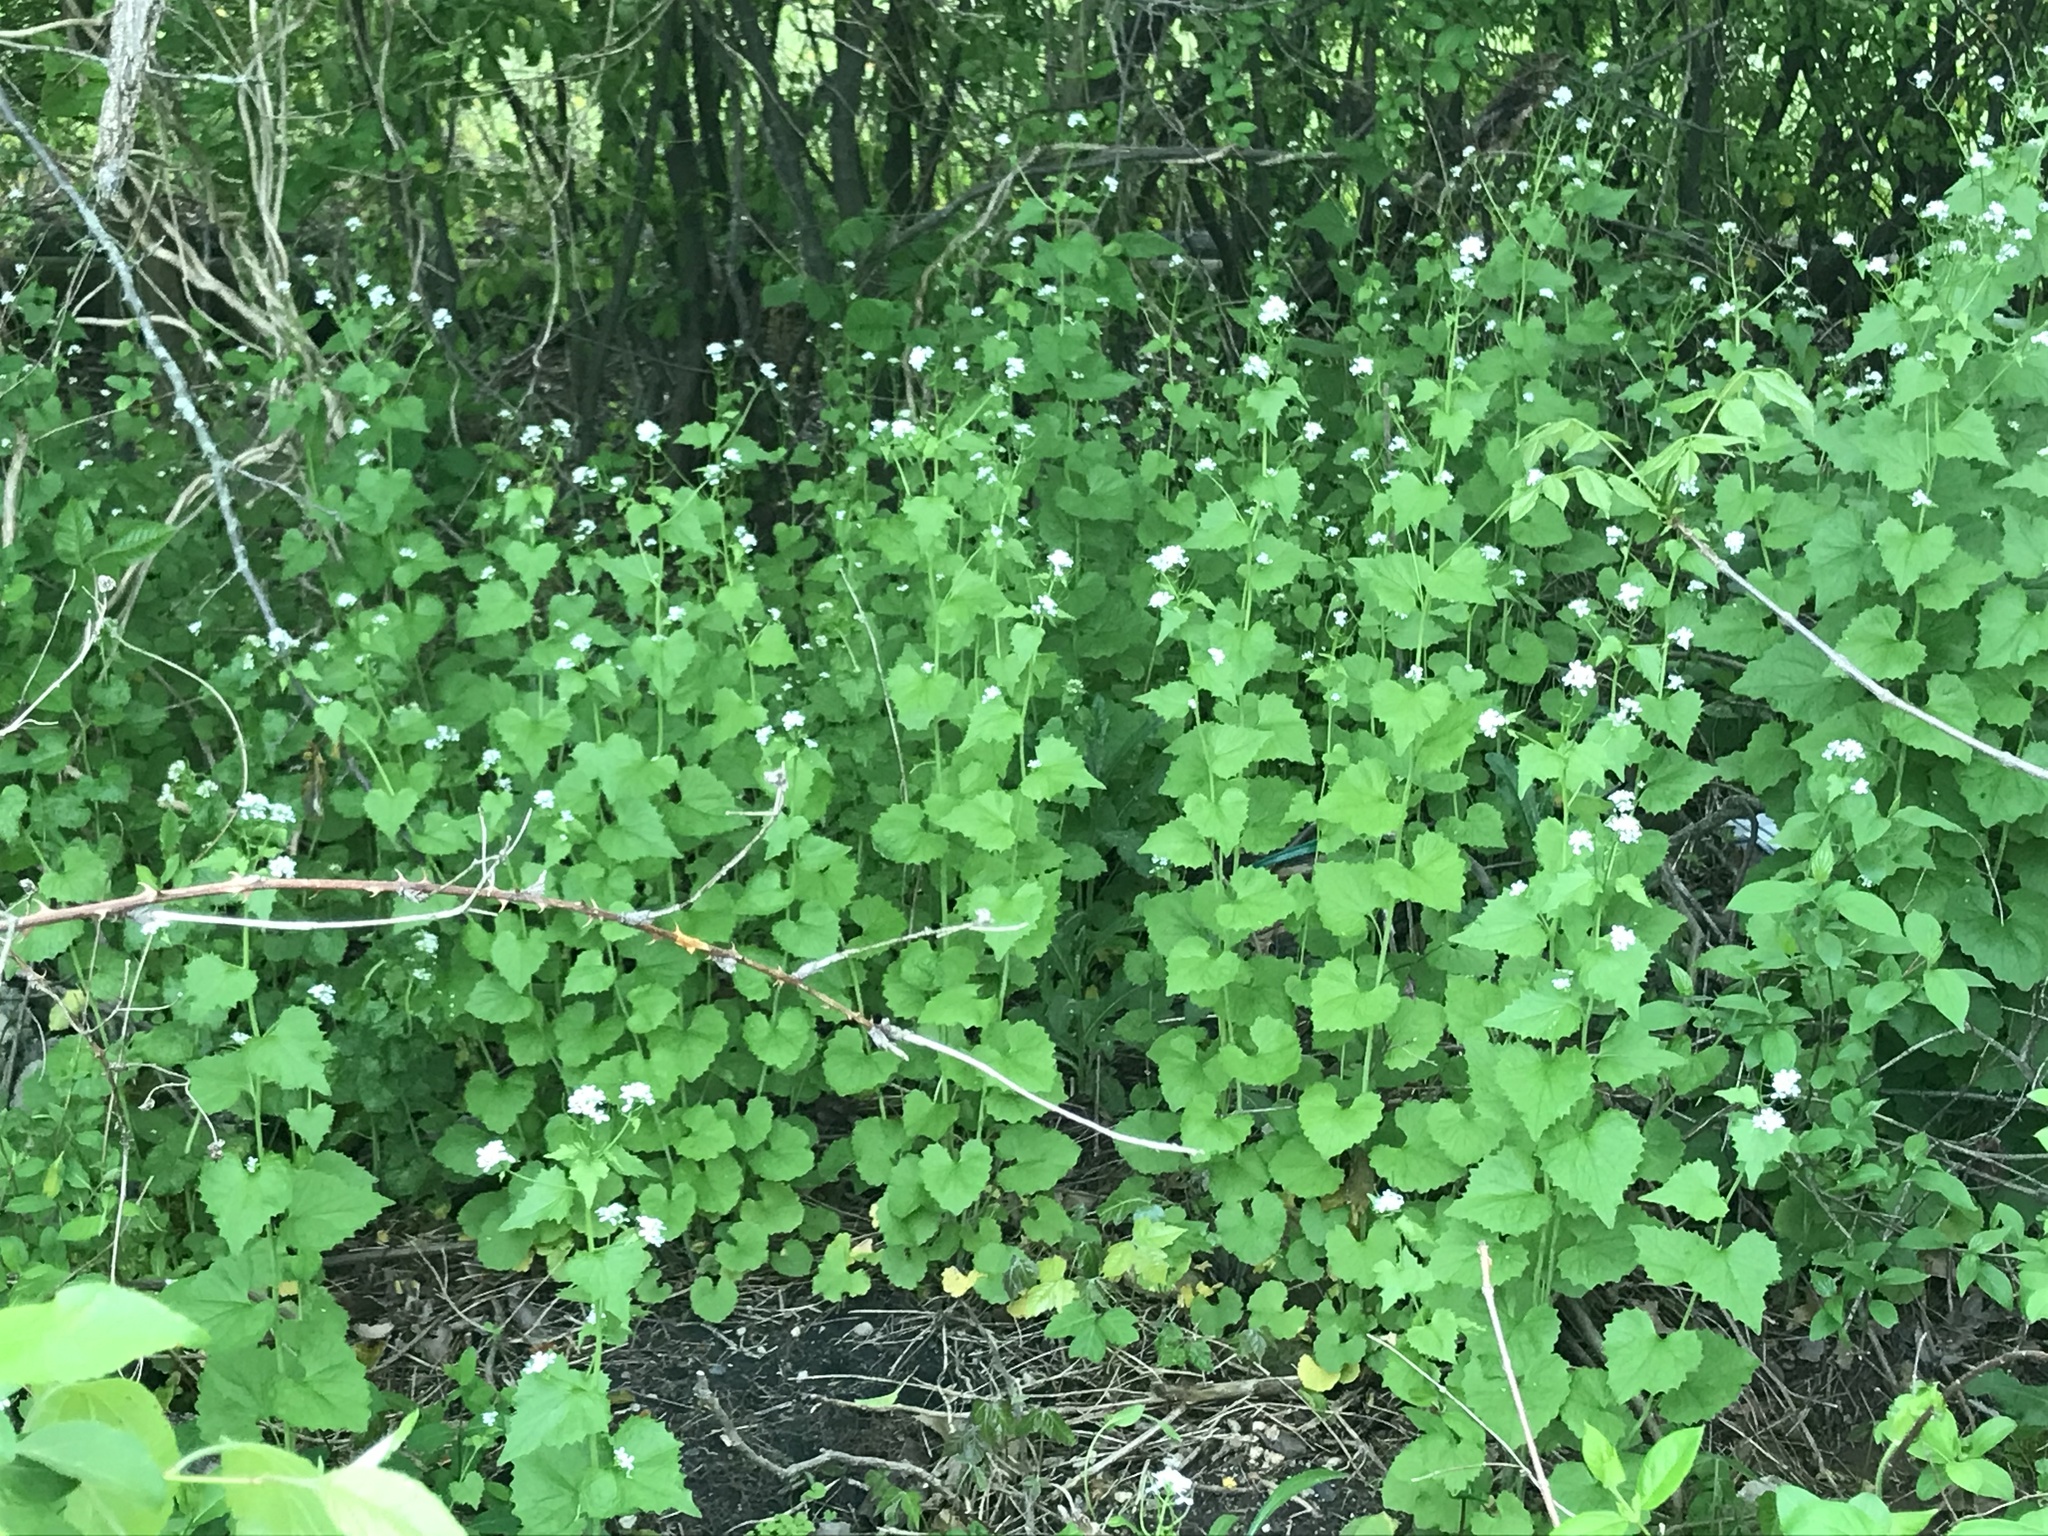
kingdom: Plantae
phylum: Tracheophyta
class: Magnoliopsida
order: Brassicales
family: Brassicaceae
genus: Alliaria
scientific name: Alliaria petiolata
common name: Garlic mustard
